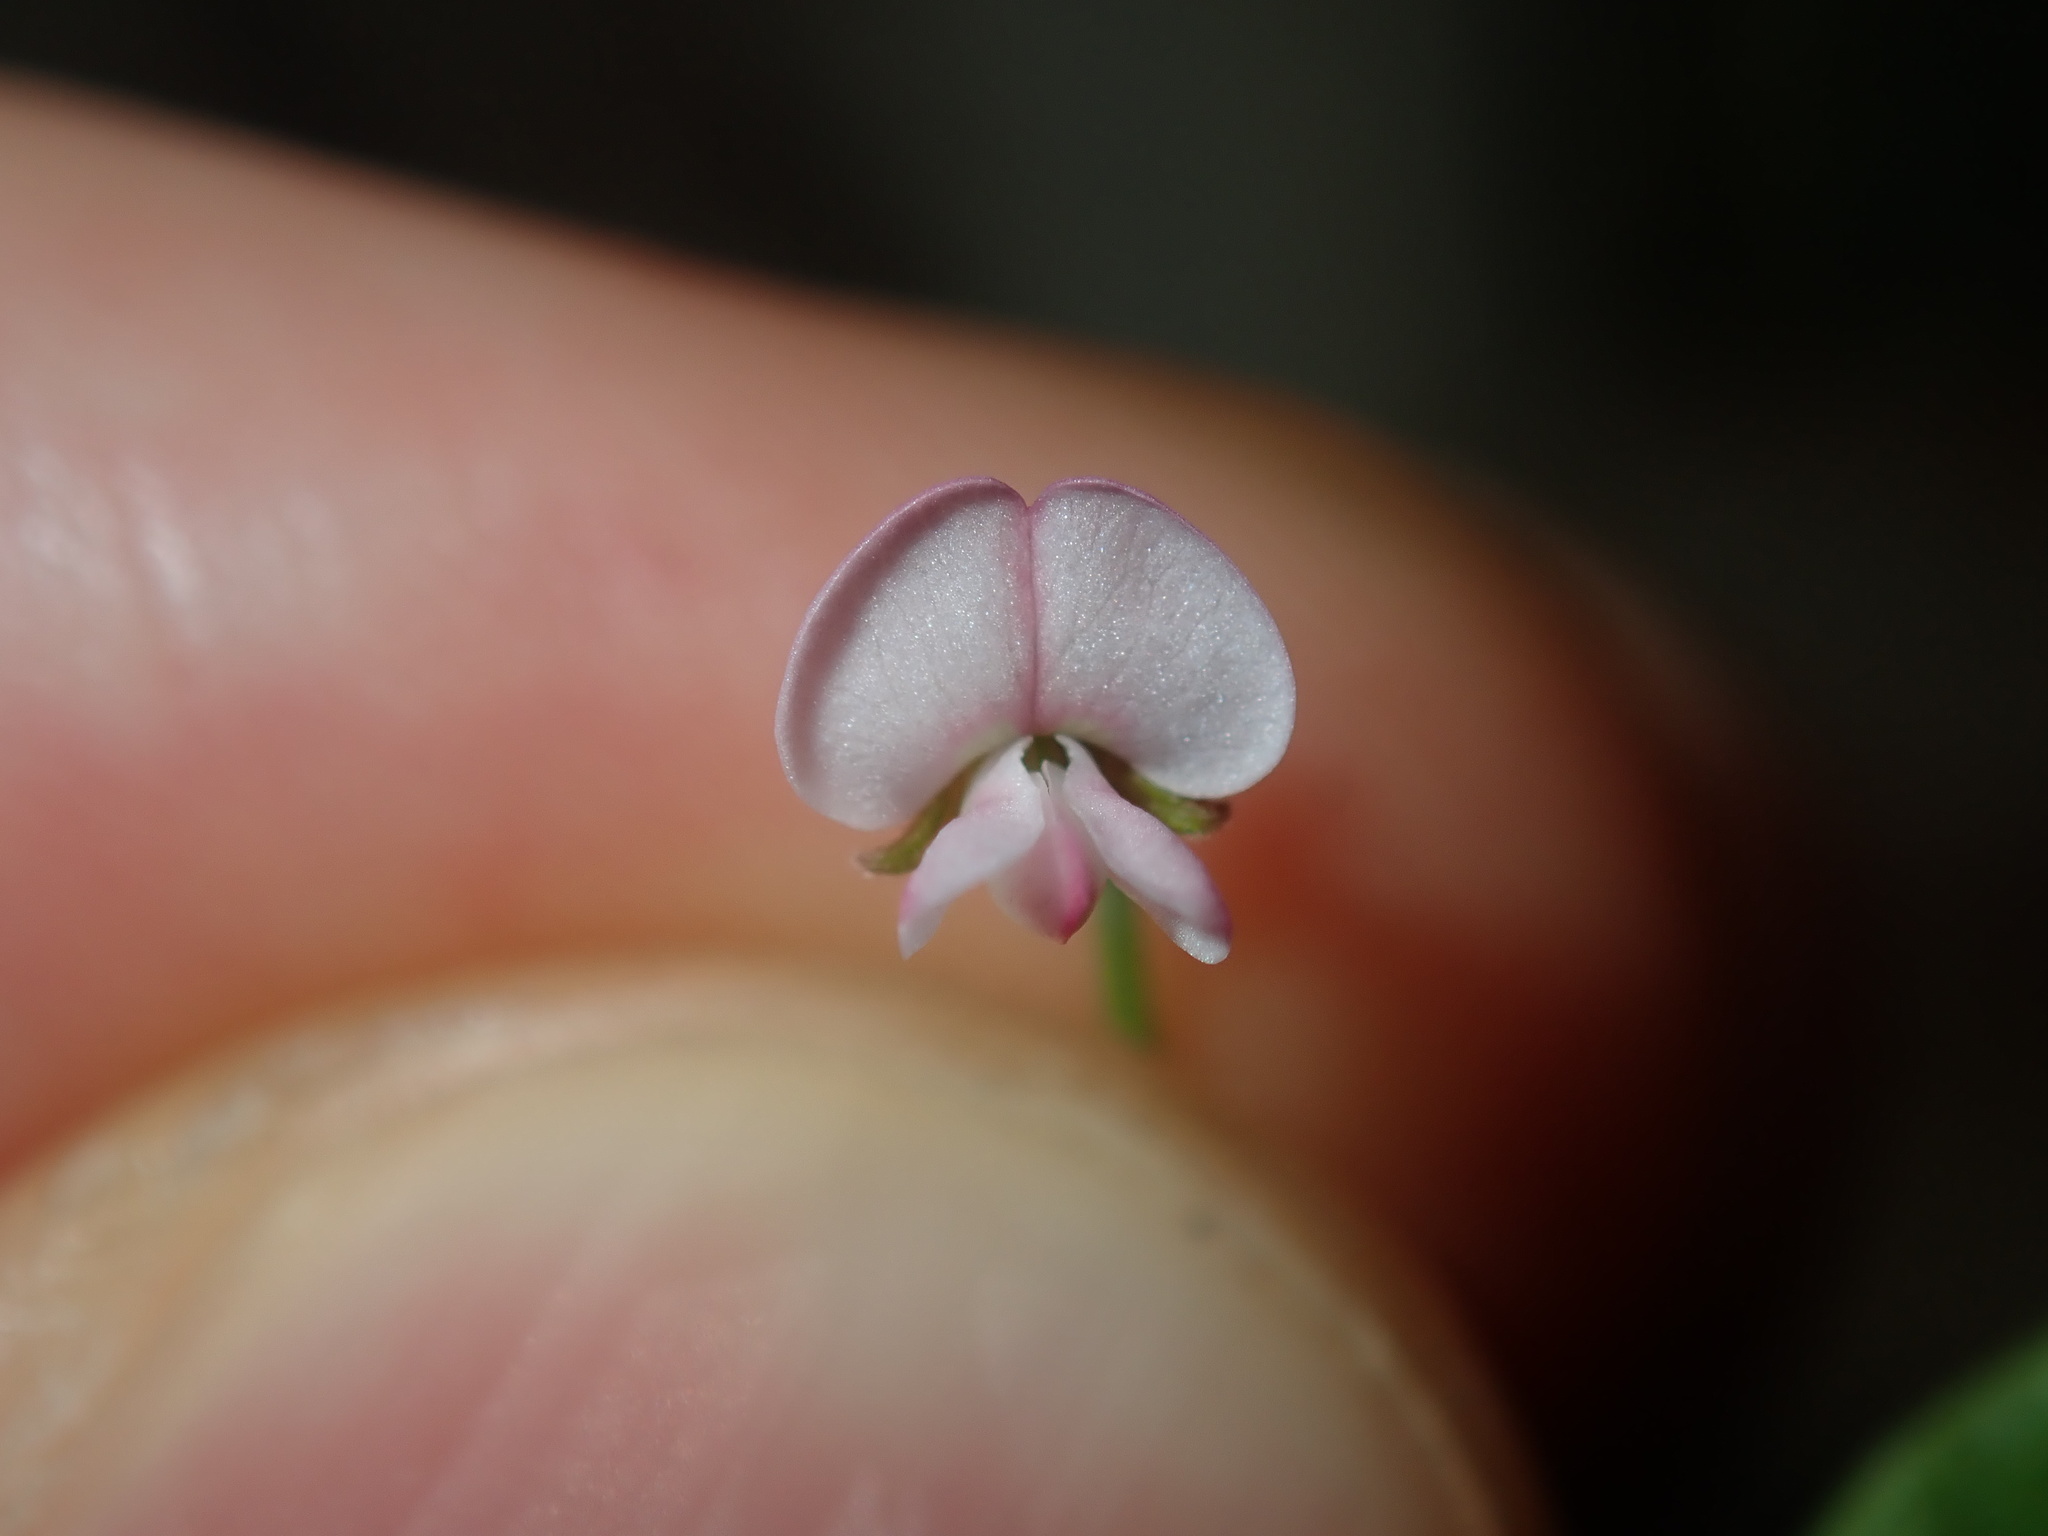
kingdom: Plantae
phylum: Tracheophyta
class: Magnoliopsida
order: Fabales
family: Fabaceae
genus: Grona
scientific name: Grona varians
